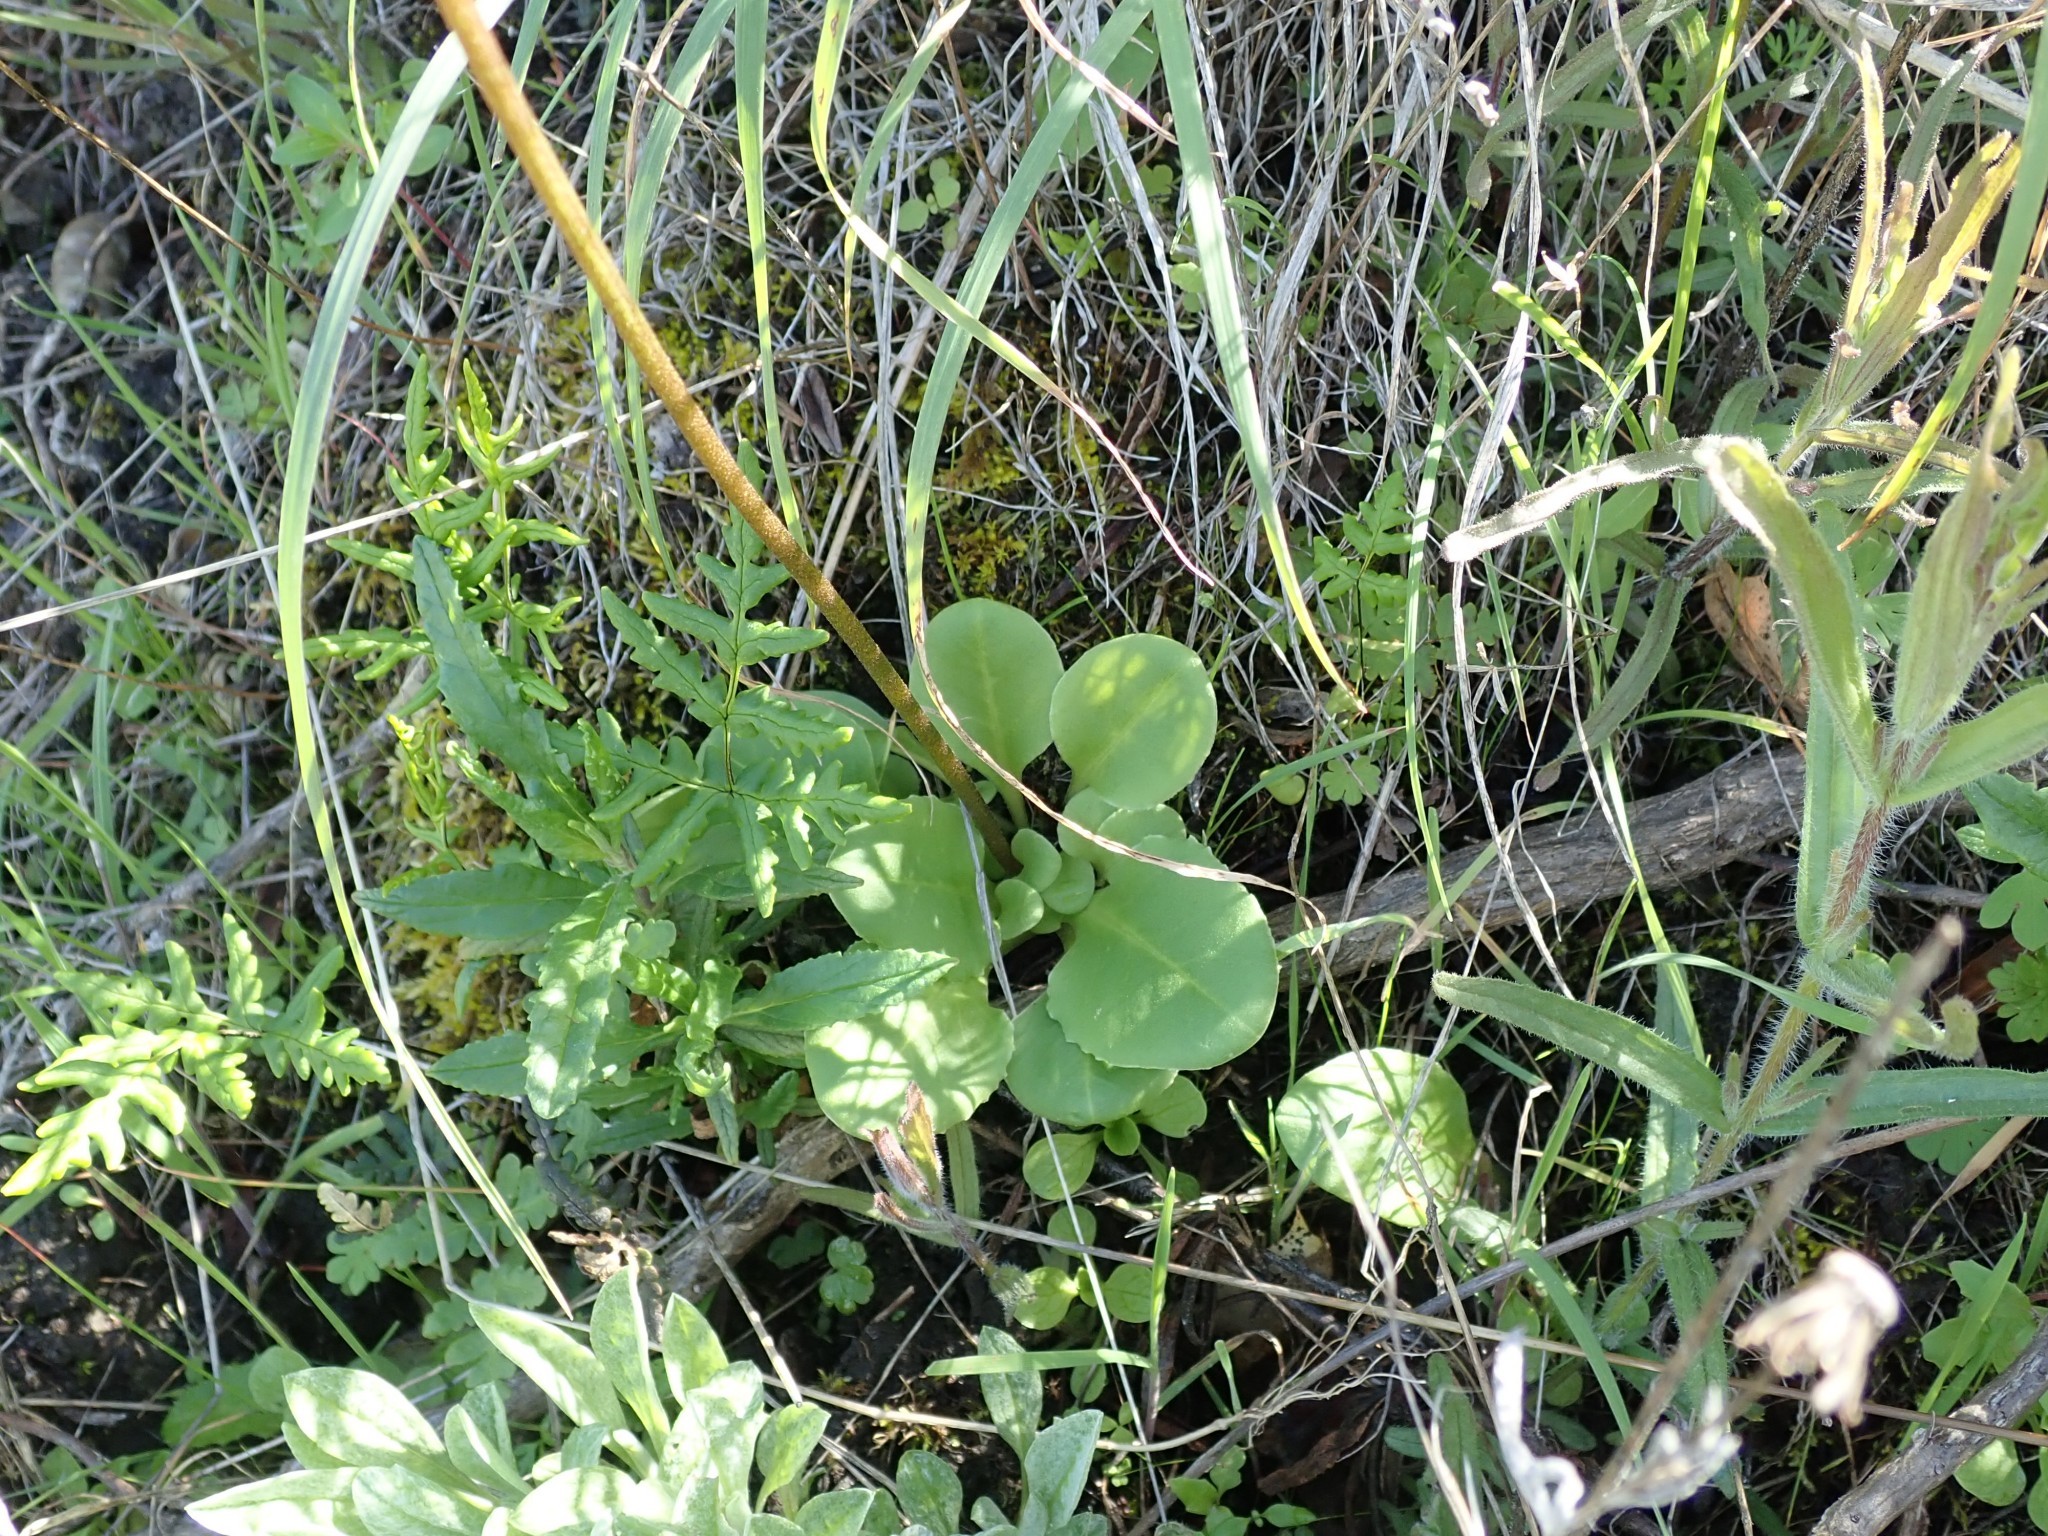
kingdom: Plantae
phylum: Tracheophyta
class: Magnoliopsida
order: Ericales
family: Primulaceae
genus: Dodecatheon
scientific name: Dodecatheon hendersonii
